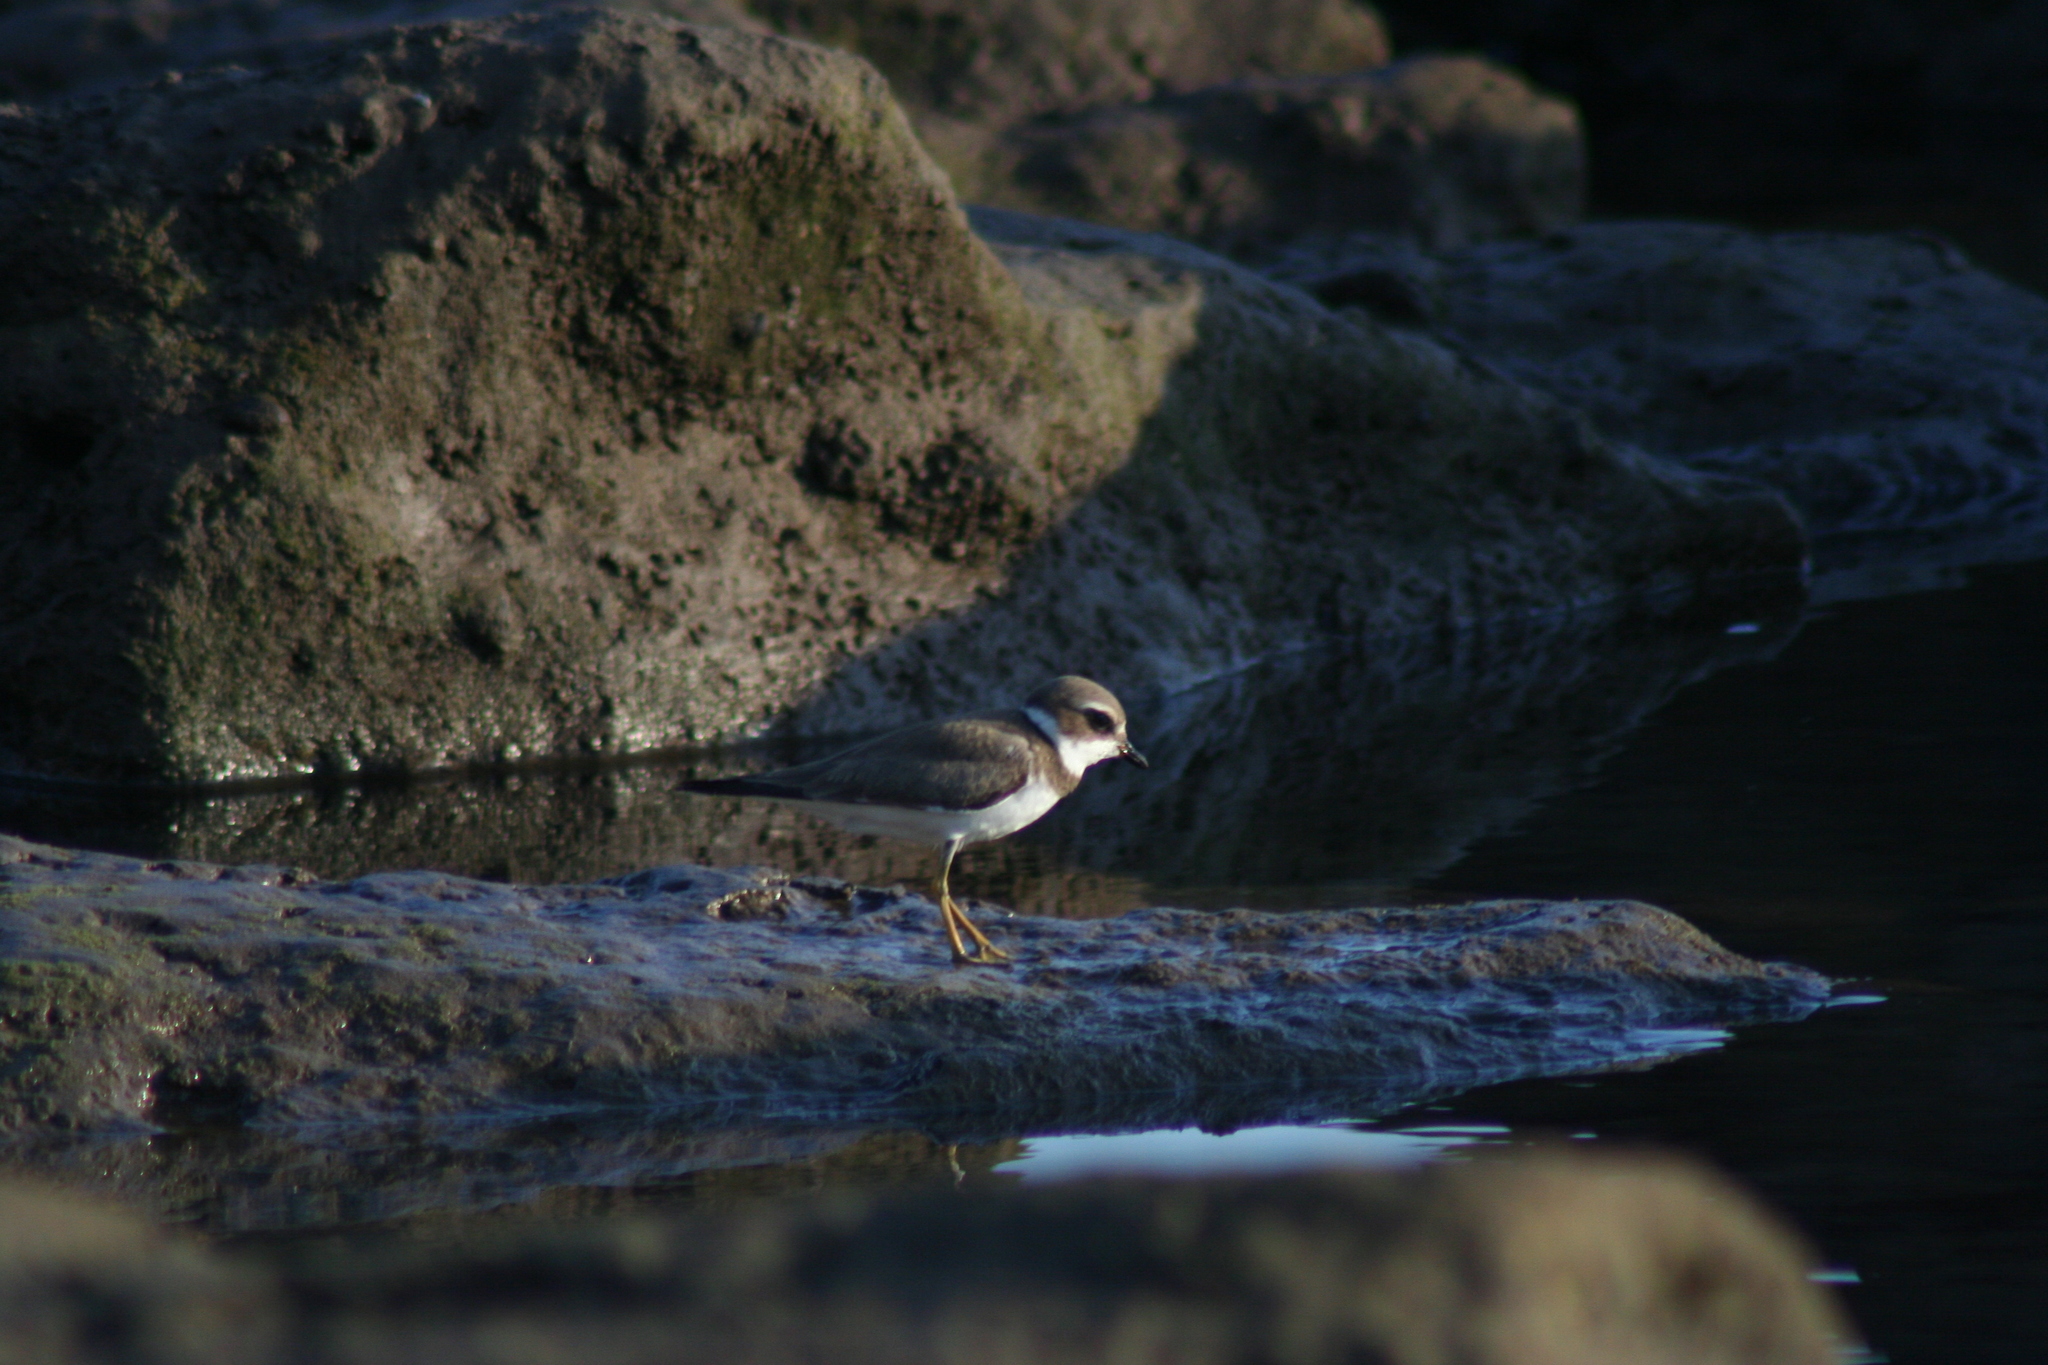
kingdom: Animalia
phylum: Chordata
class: Aves
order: Charadriiformes
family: Charadriidae
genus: Charadrius
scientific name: Charadrius semipalmatus
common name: Semipalmated plover
